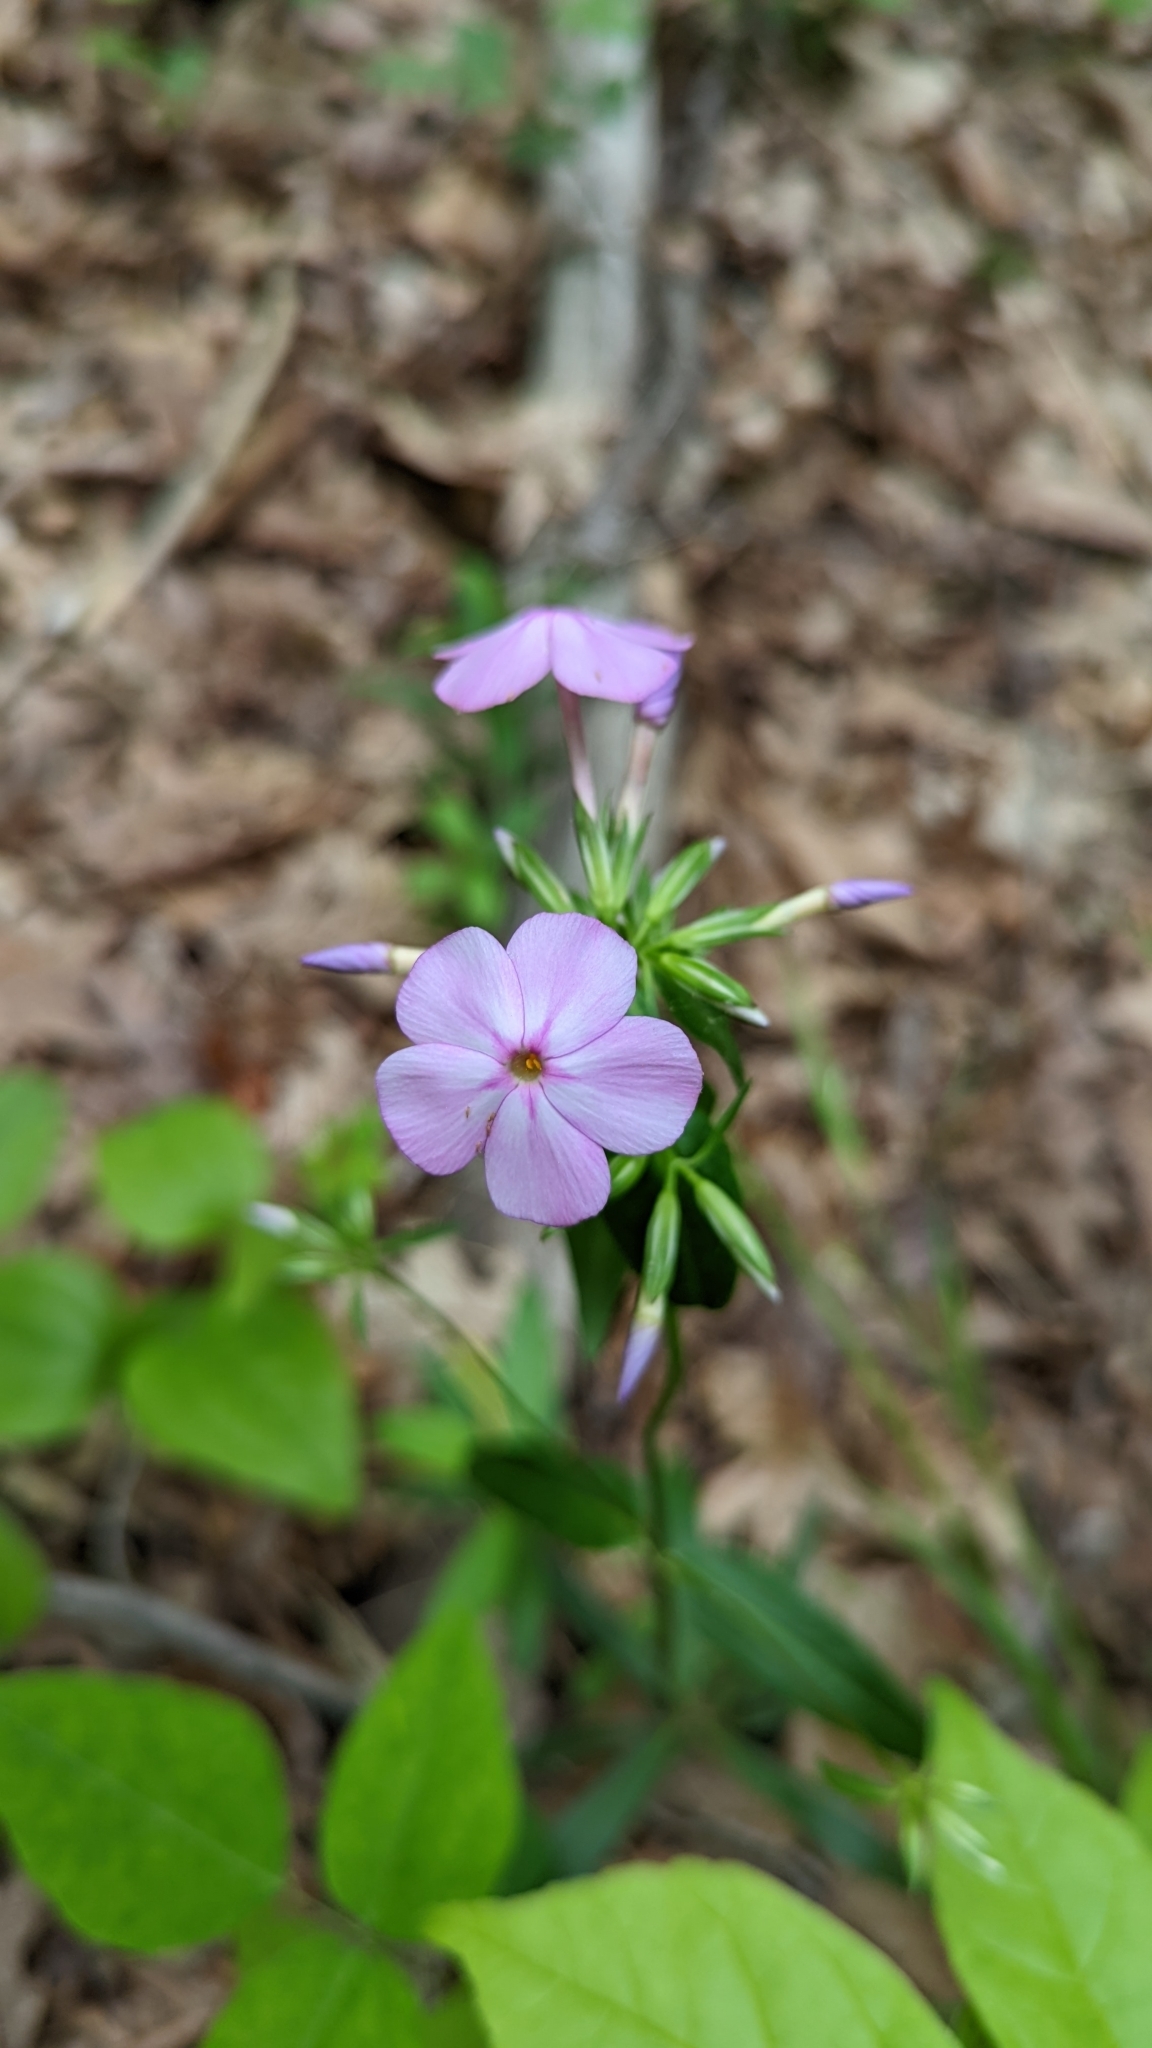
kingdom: Plantae
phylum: Tracheophyta
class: Magnoliopsida
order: Ericales
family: Polemoniaceae
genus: Phlox
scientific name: Phlox glaberrima
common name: Smooth phlox
